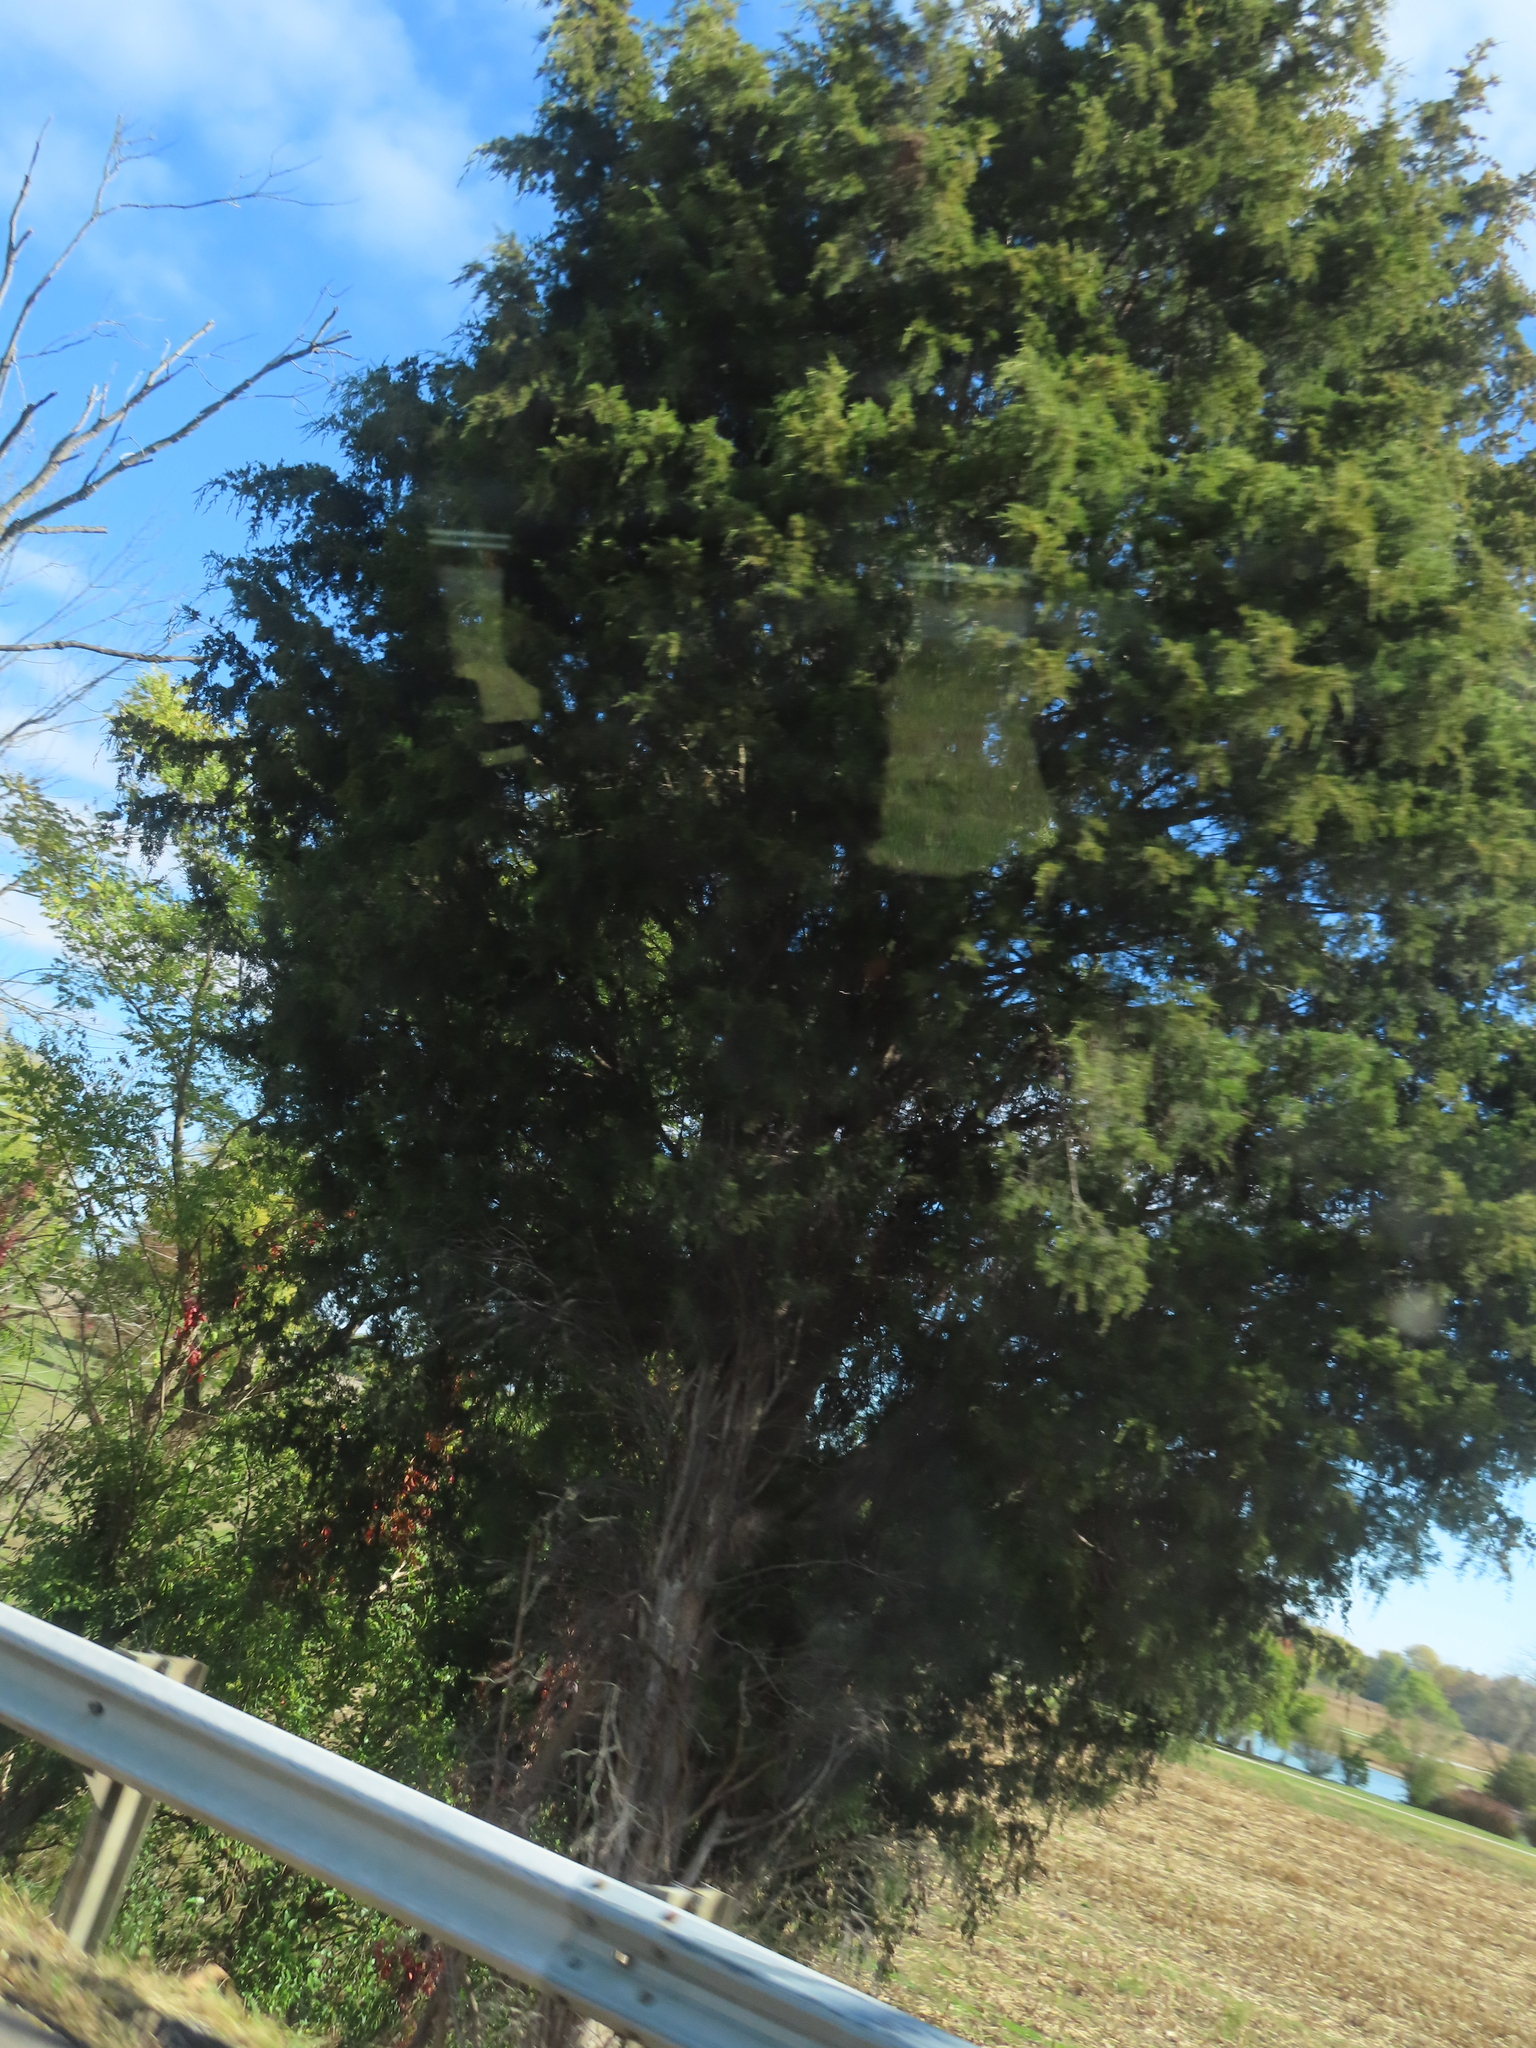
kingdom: Plantae
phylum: Tracheophyta
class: Pinopsida
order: Pinales
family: Cupressaceae
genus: Juniperus
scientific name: Juniperus virginiana
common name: Red juniper
